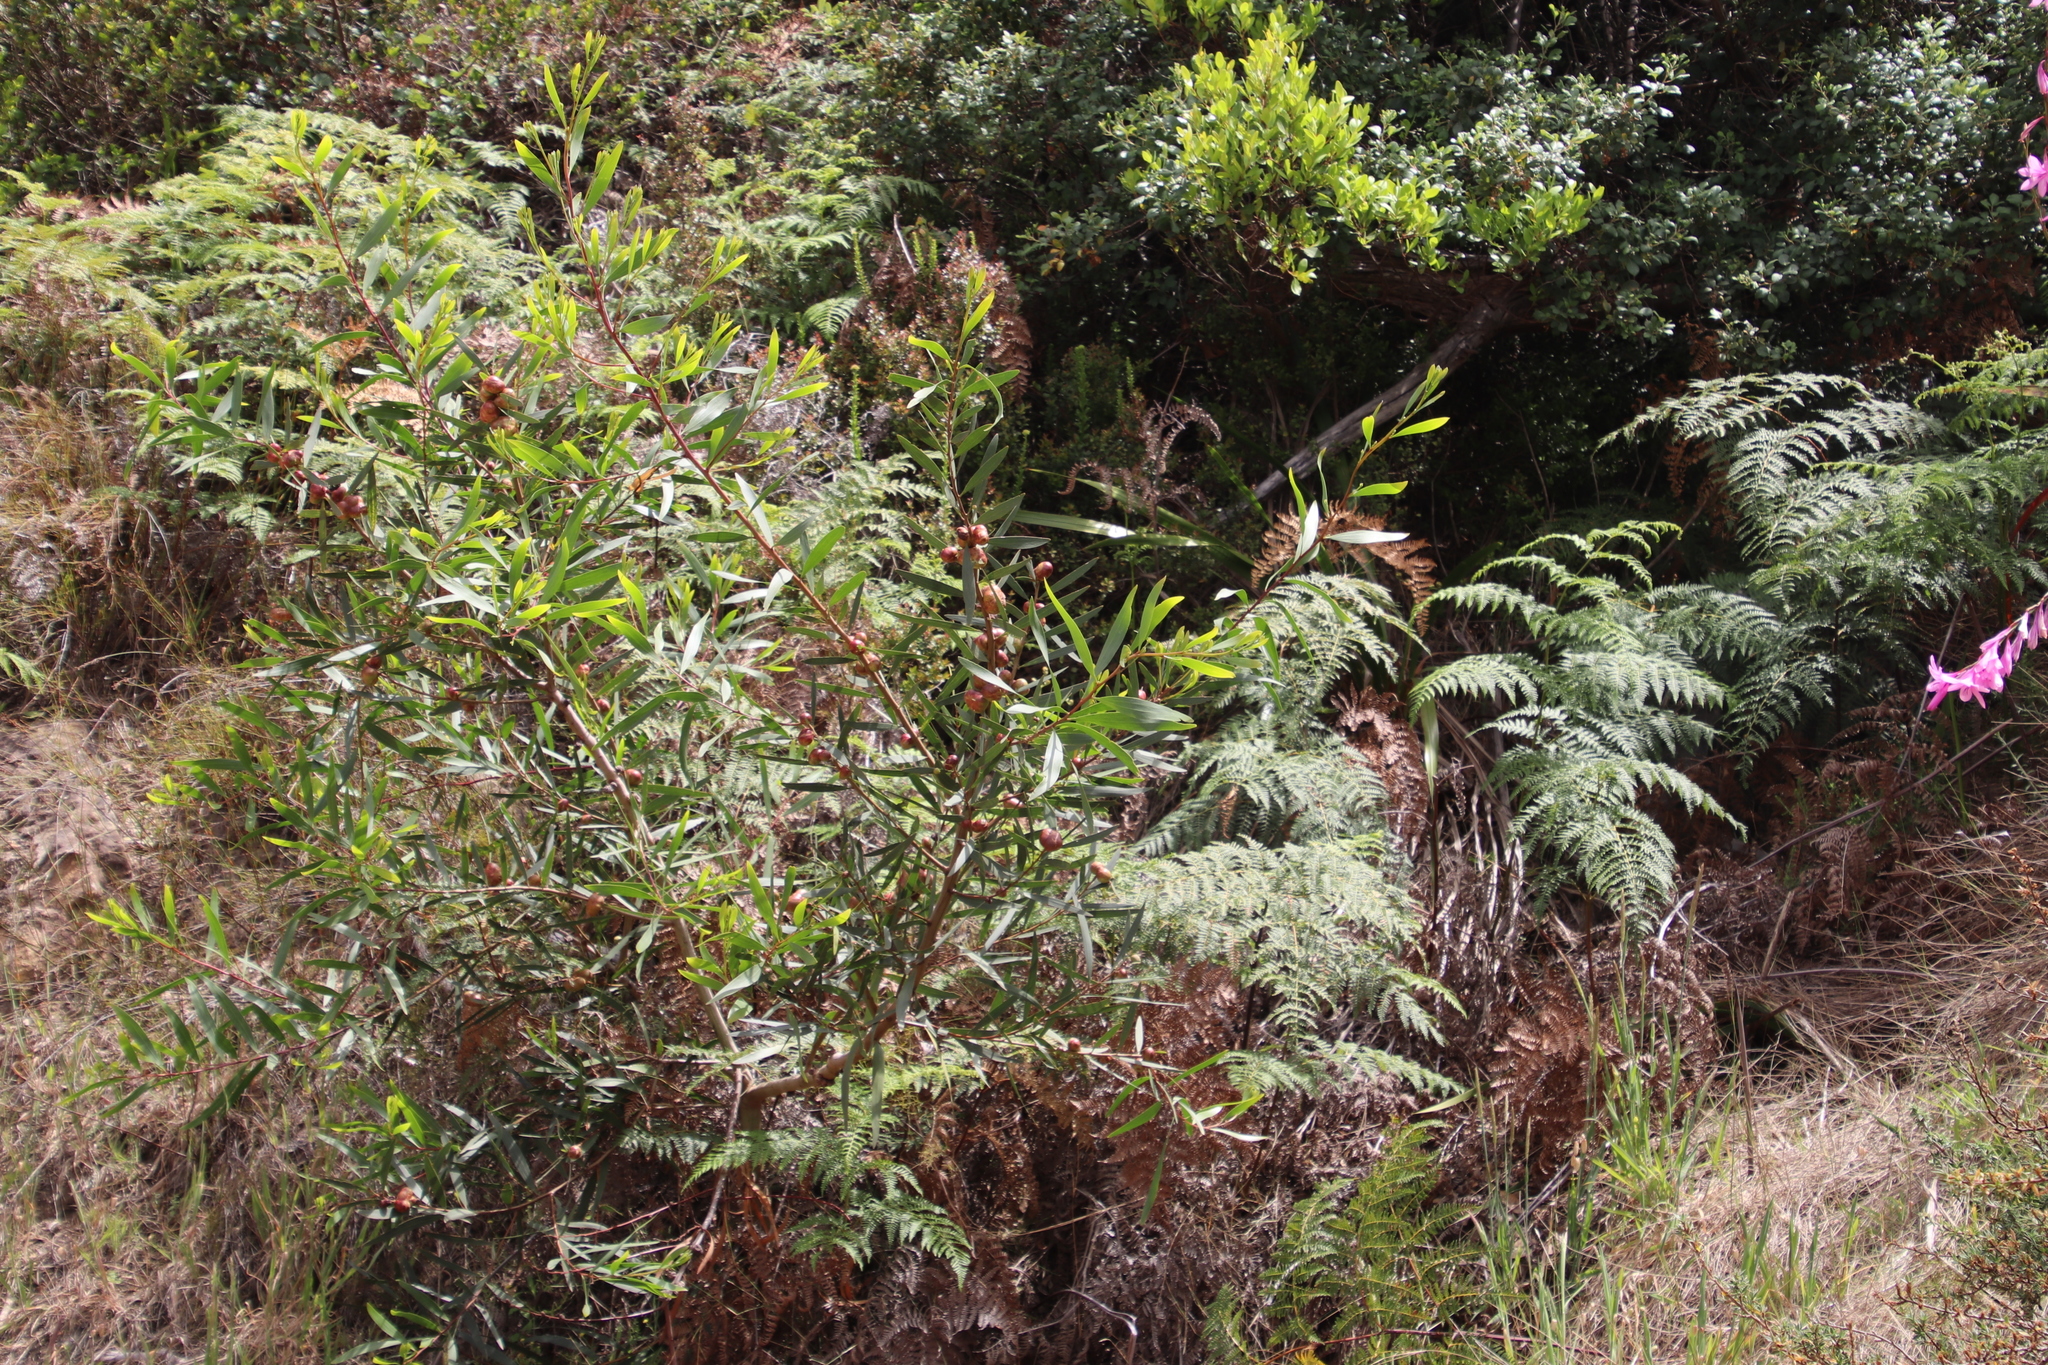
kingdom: Plantae
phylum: Tracheophyta
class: Magnoliopsida
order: Fabales
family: Fabaceae
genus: Acacia
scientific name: Acacia longifolia
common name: Sydney golden wattle
